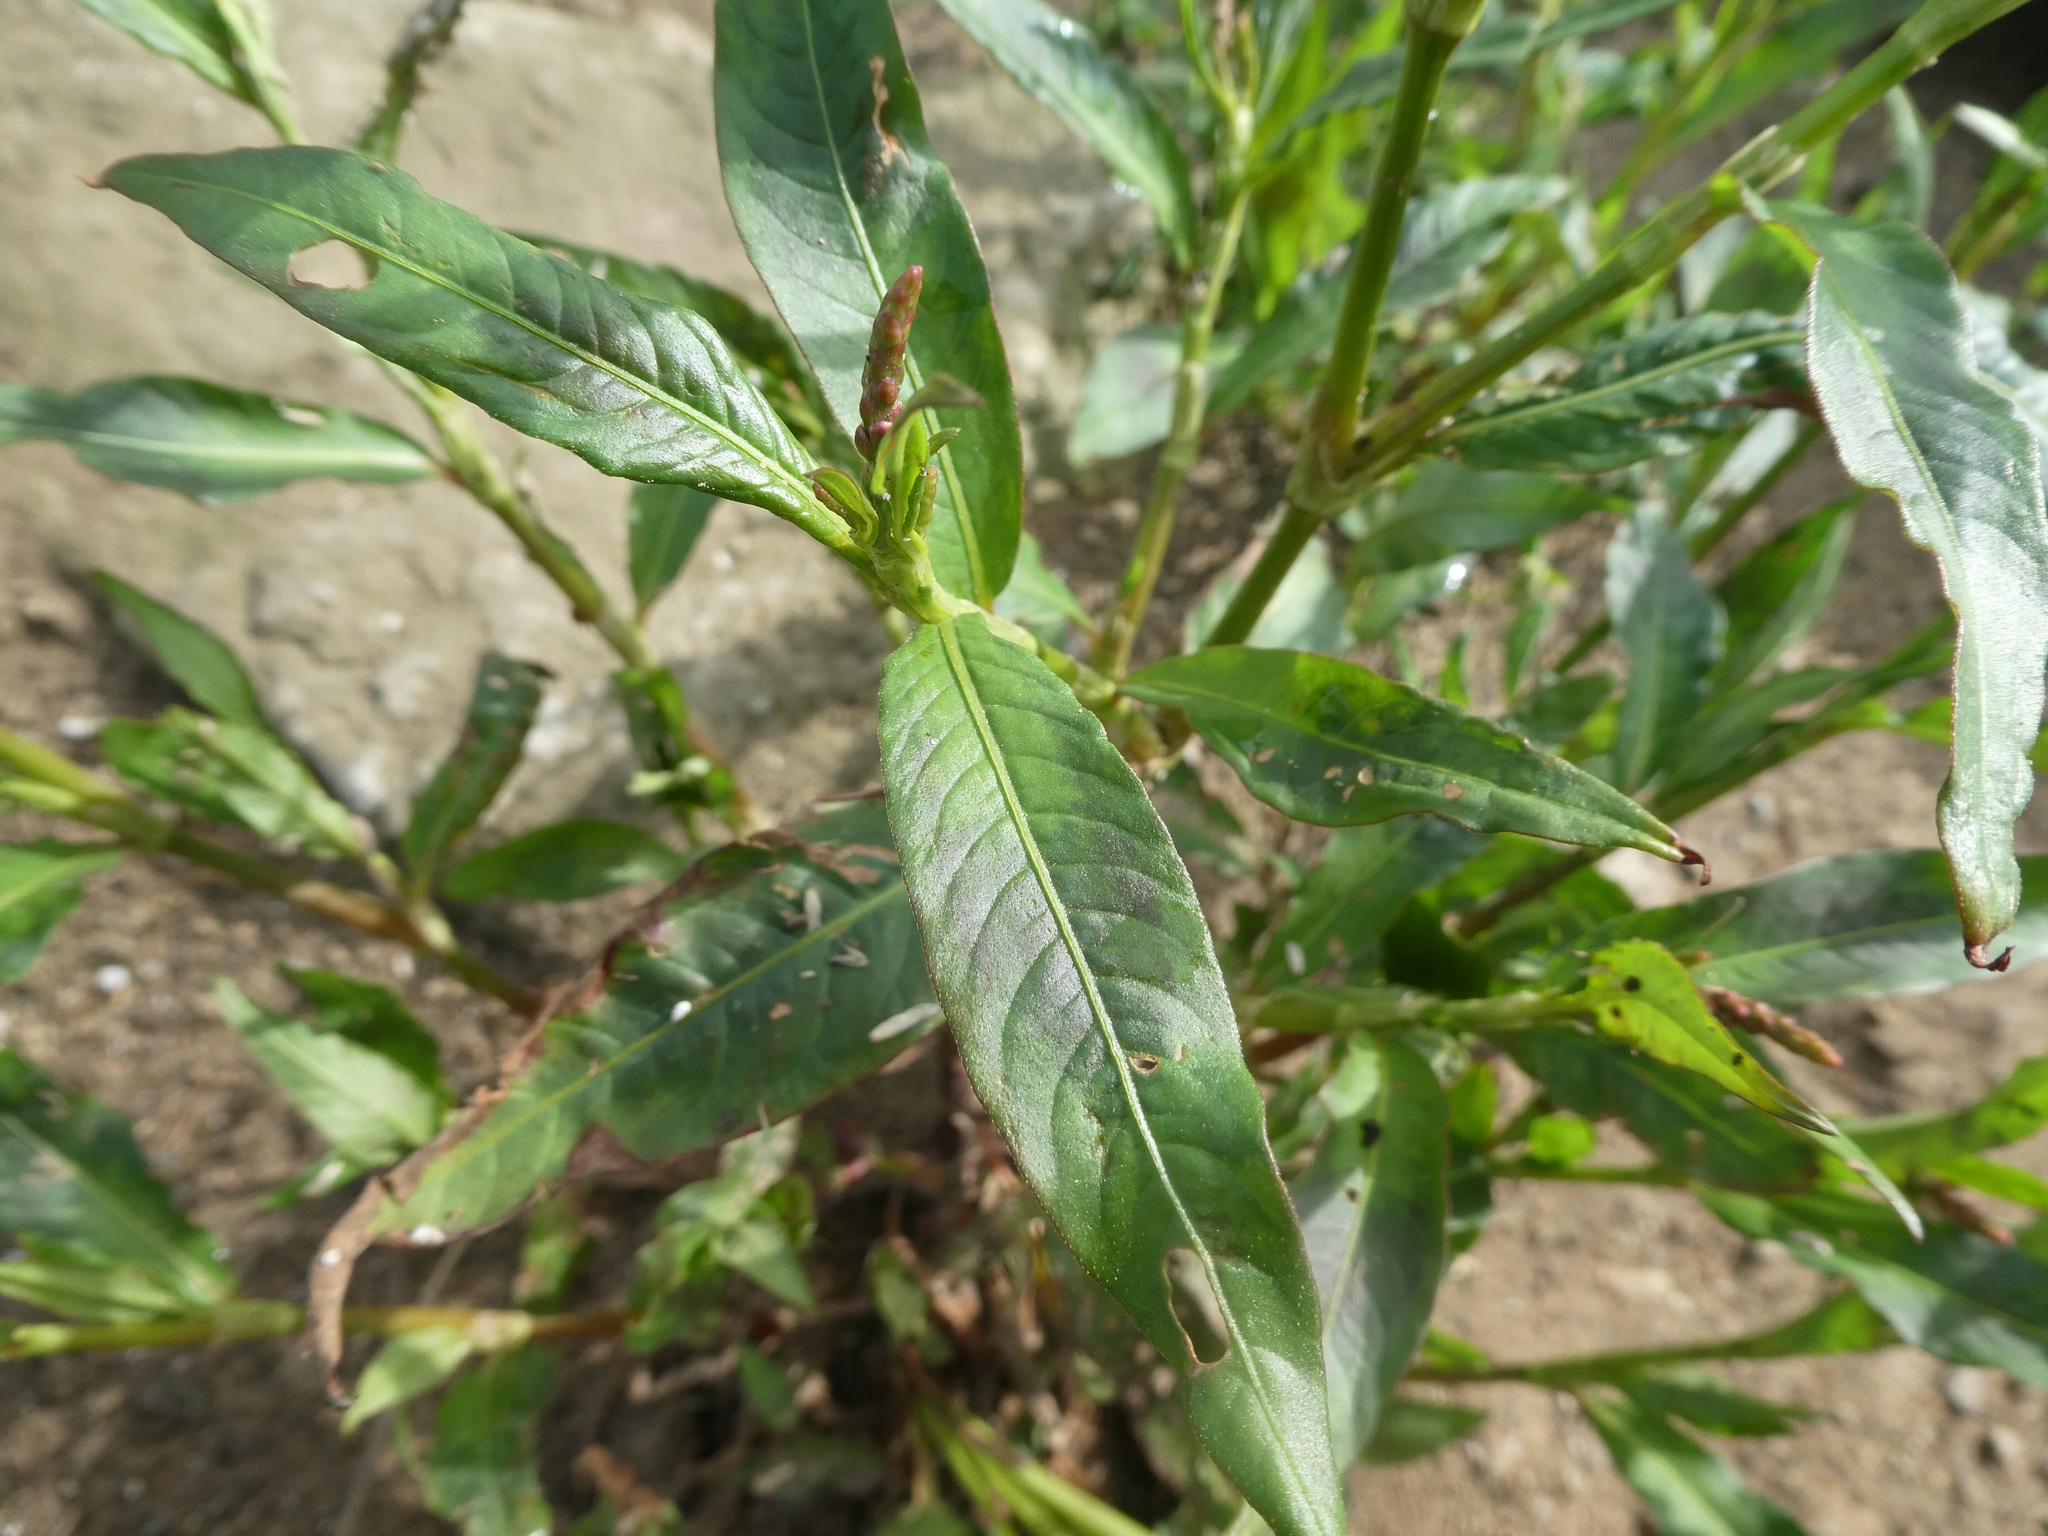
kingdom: Plantae
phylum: Tracheophyta
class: Magnoliopsida
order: Caryophyllales
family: Polygonaceae
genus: Persicaria
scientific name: Persicaria maculosa
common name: Redshank
